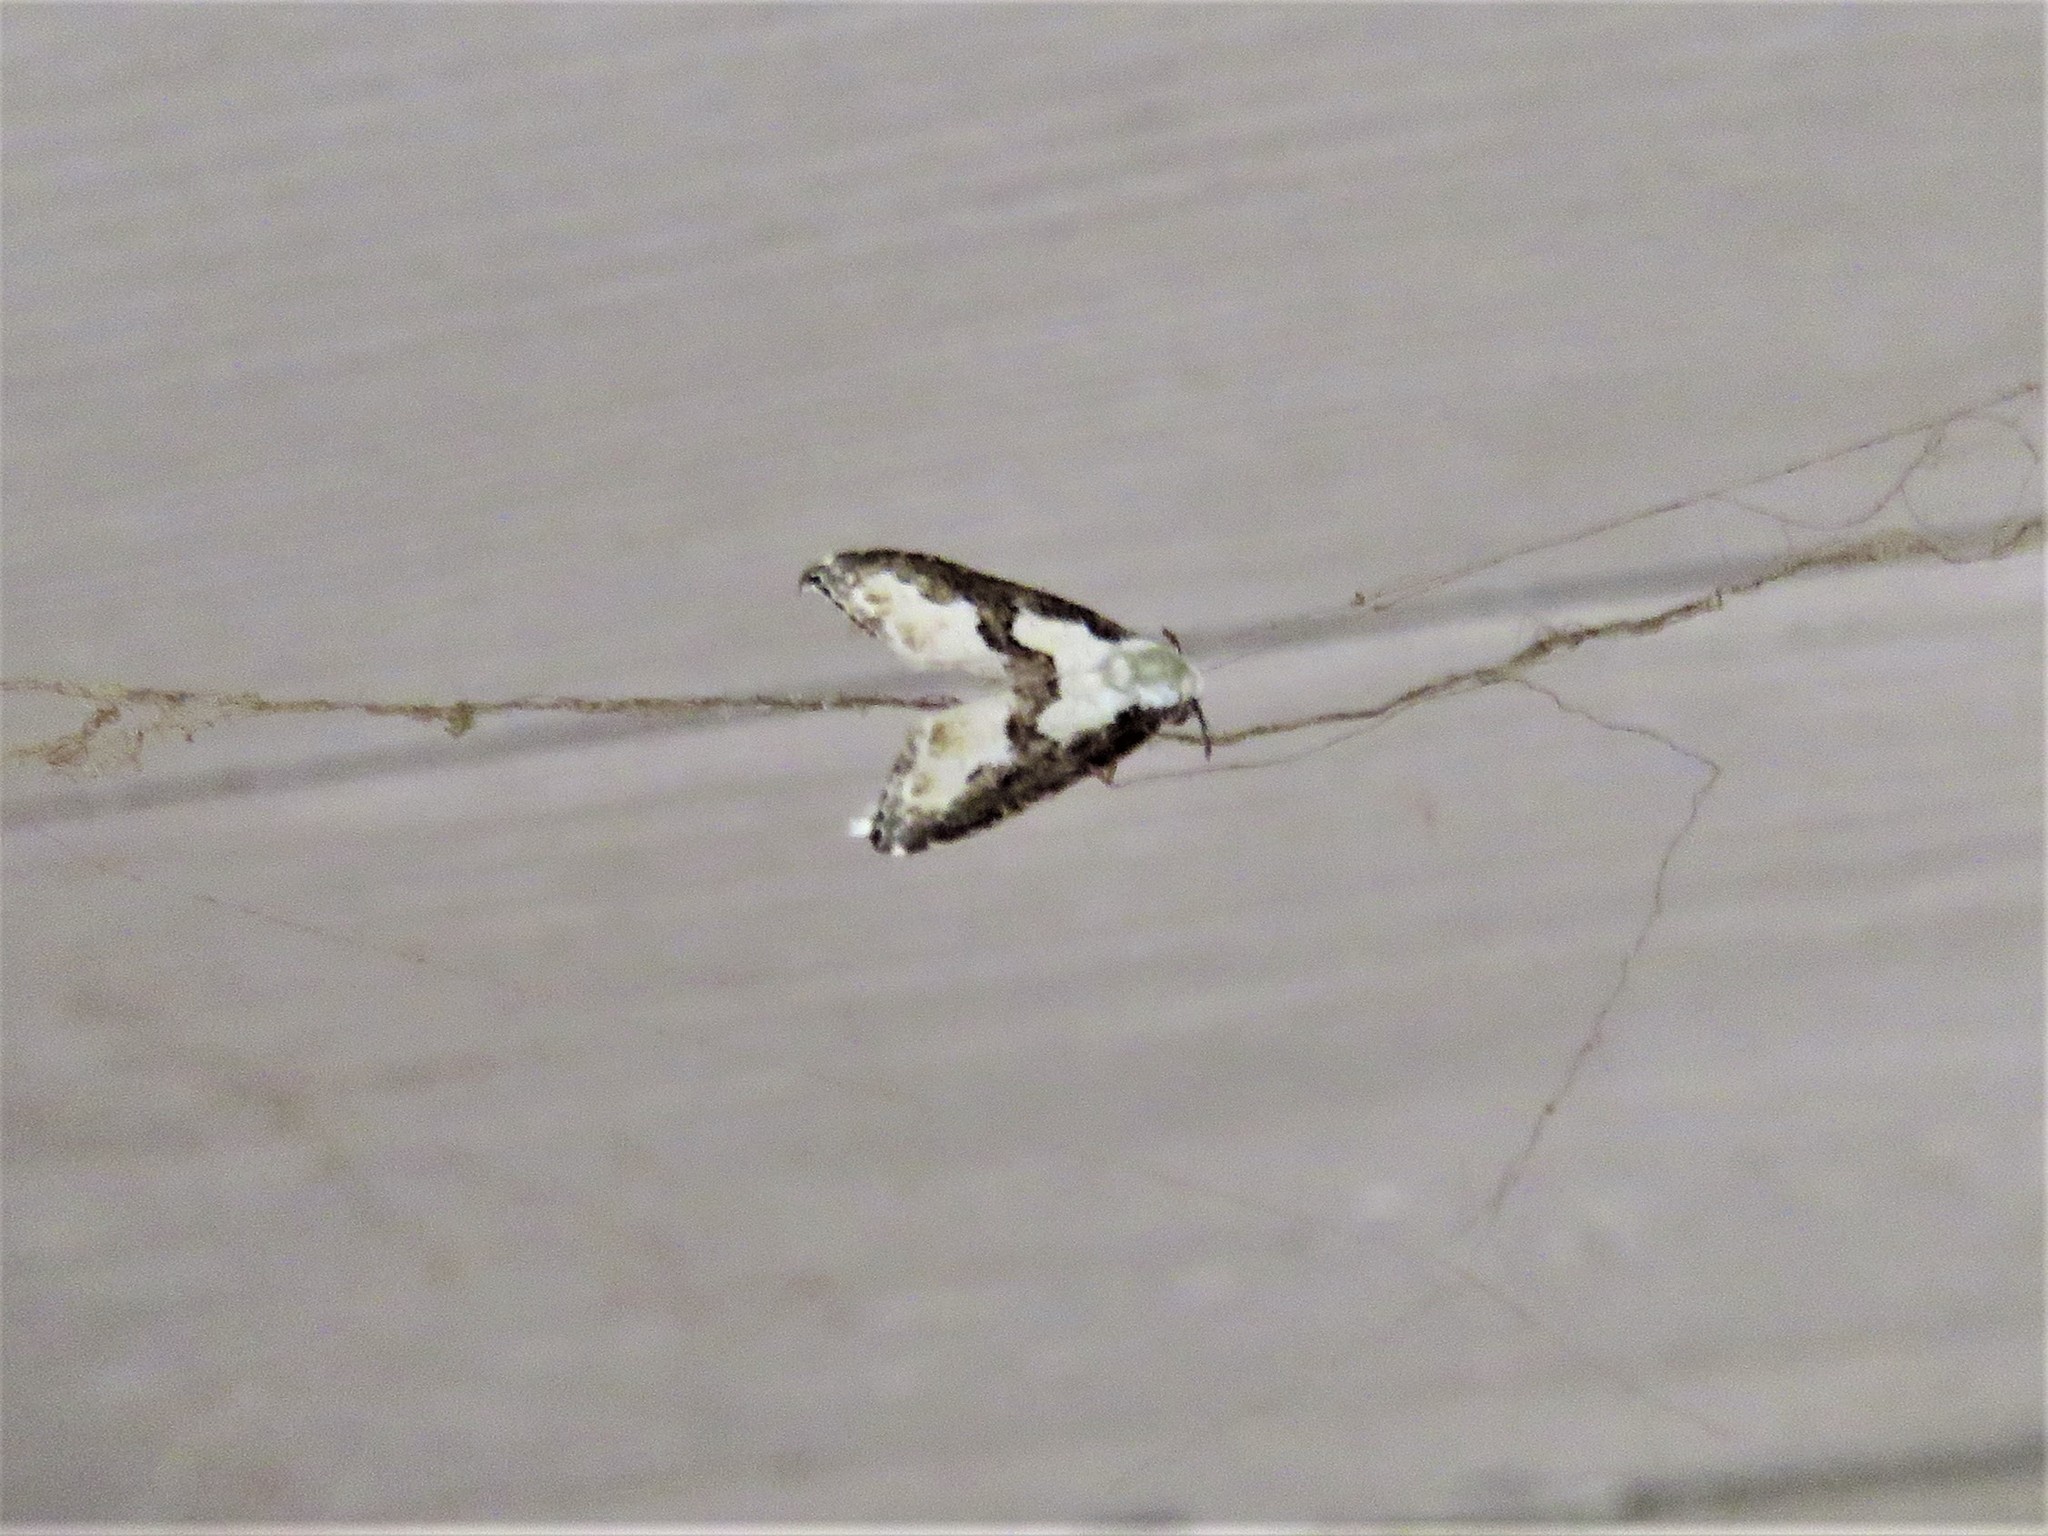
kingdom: Animalia
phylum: Arthropoda
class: Insecta
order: Lepidoptera
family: Noctuidae
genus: Nigetia
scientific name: Nigetia formosalis
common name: Thin-winged owlet
